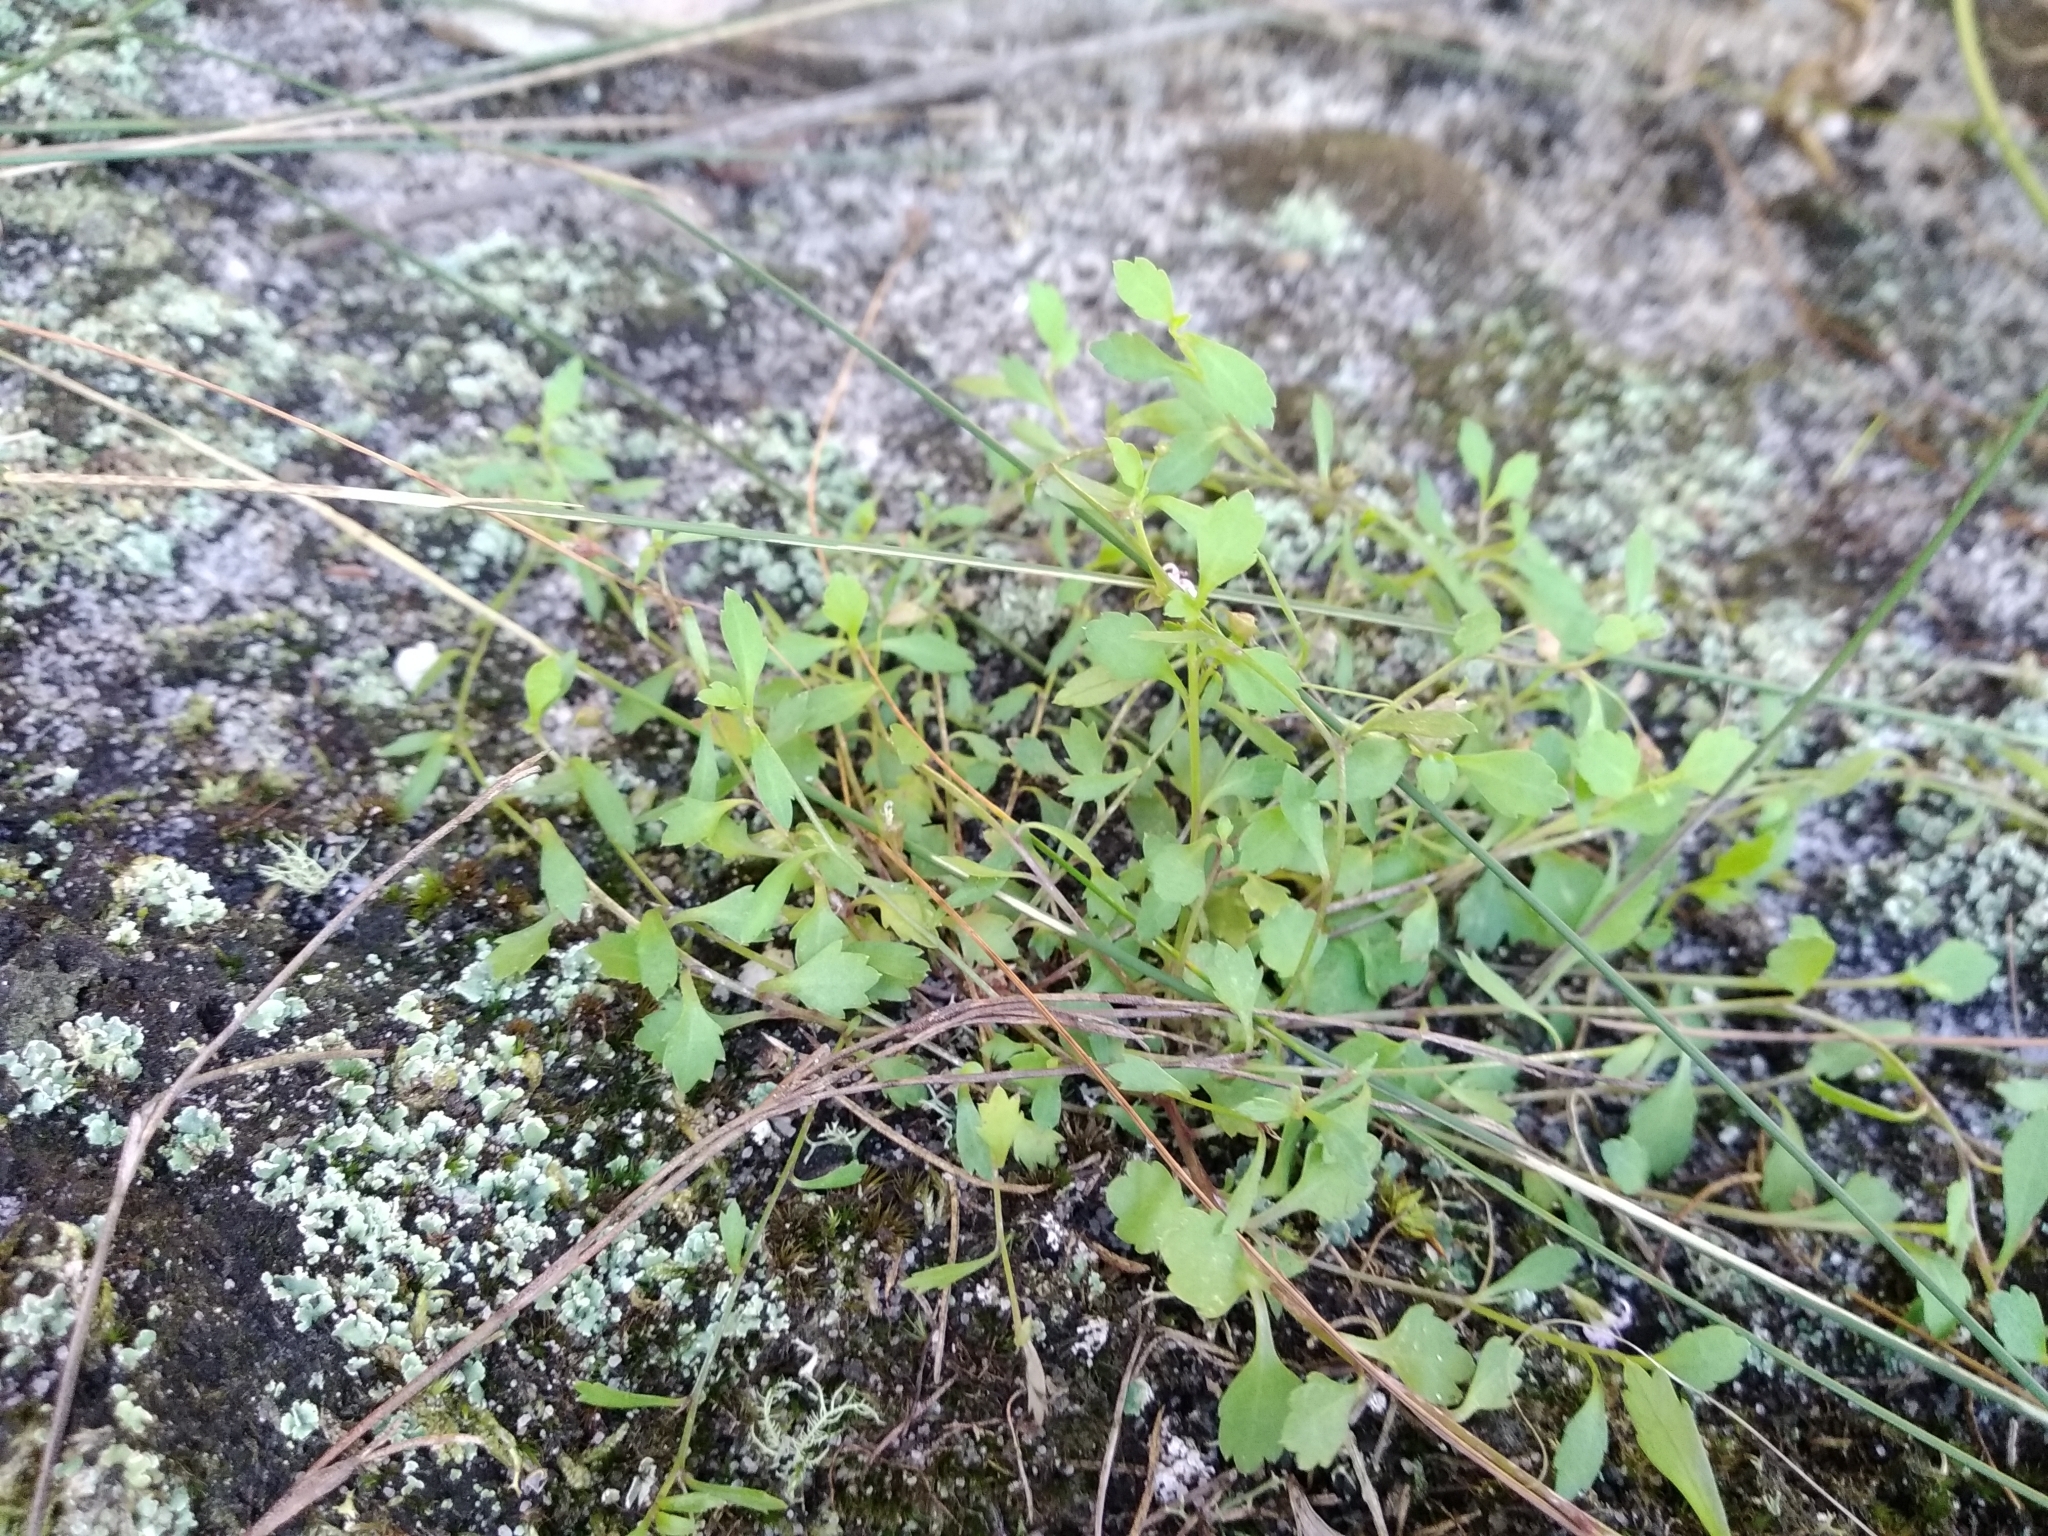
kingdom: Plantae
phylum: Tracheophyta
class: Magnoliopsida
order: Asterales
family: Campanulaceae
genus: Lobelia
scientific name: Lobelia eckloniana
